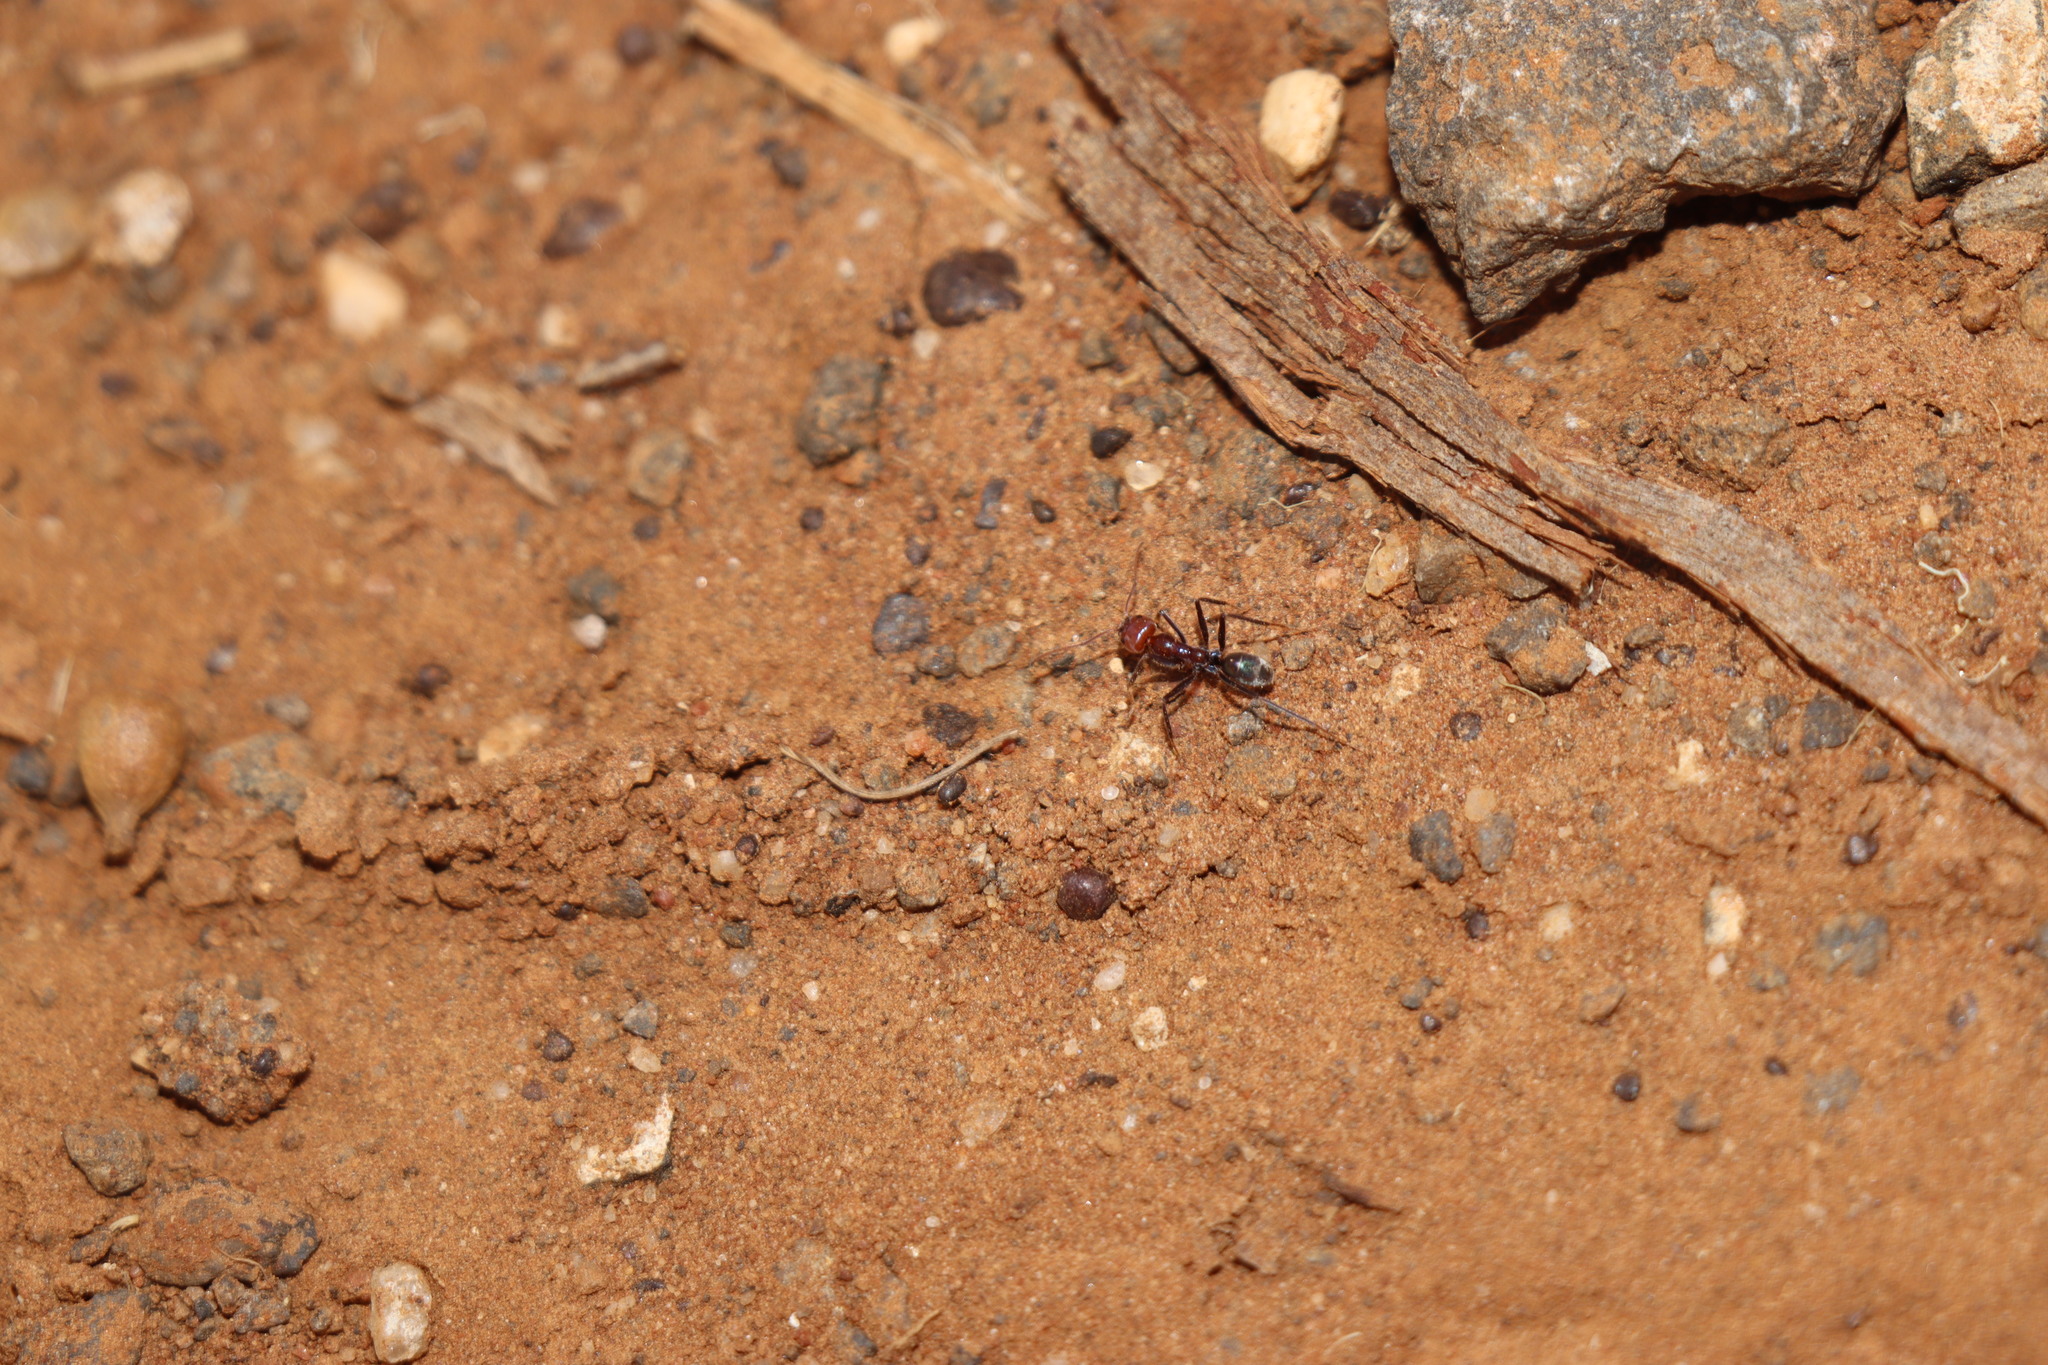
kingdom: Animalia
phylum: Arthropoda
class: Insecta
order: Hymenoptera
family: Formicidae
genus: Iridomyrmex
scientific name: Iridomyrmex purpureus
